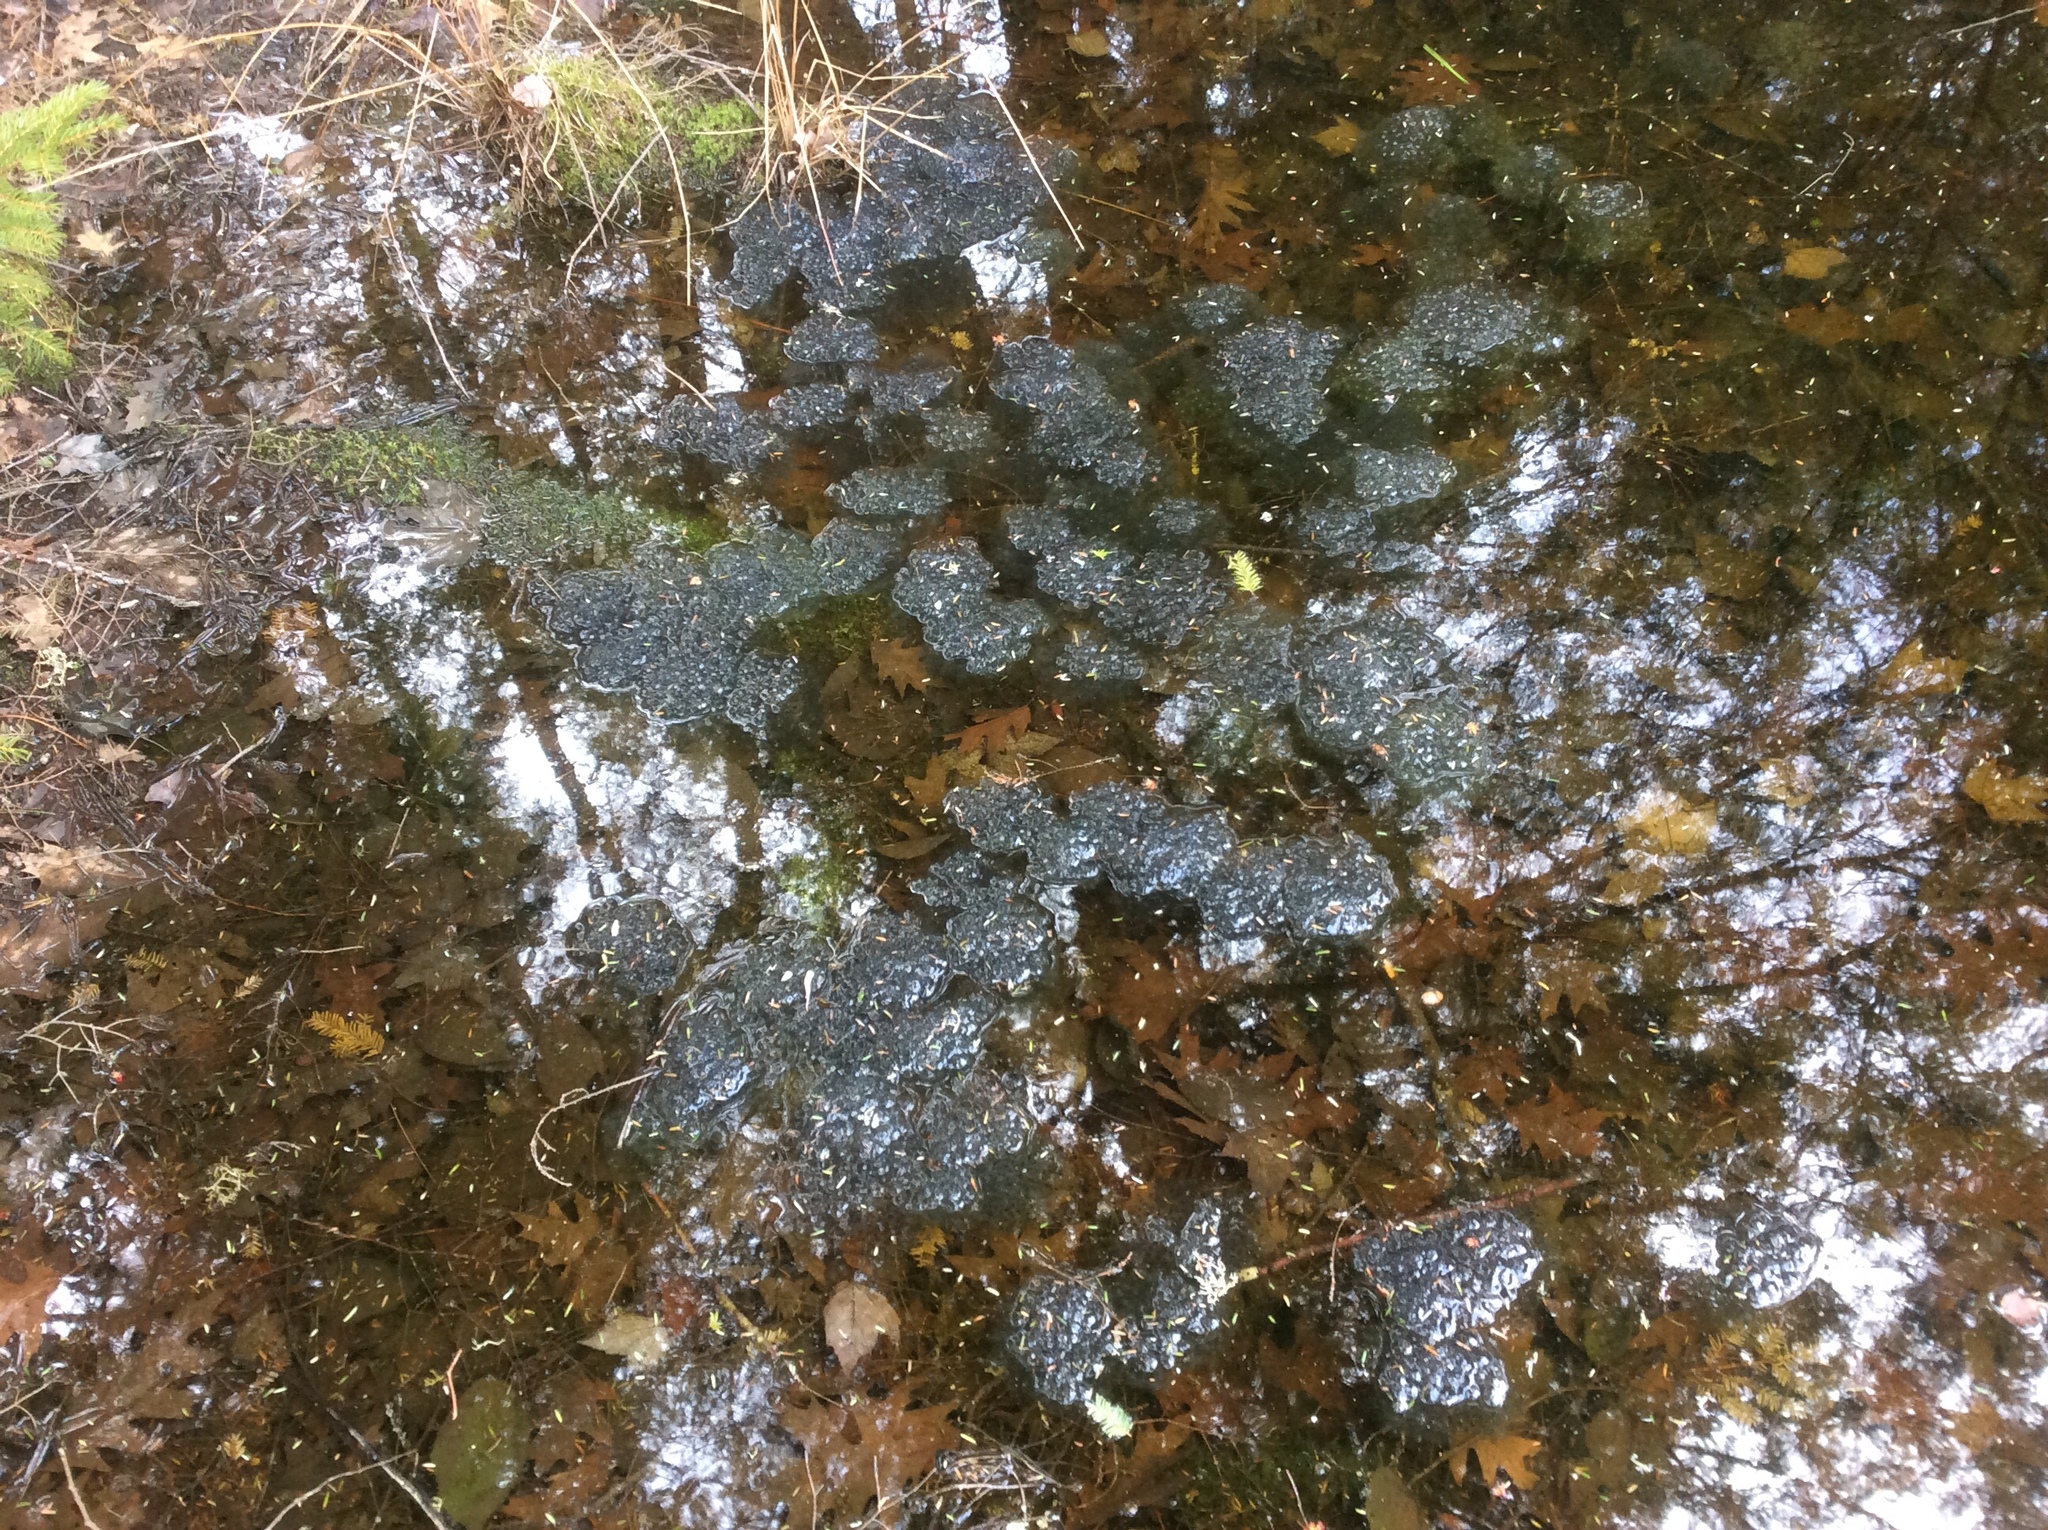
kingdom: Animalia
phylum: Chordata
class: Amphibia
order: Anura
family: Ranidae
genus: Lithobates
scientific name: Lithobates sylvaticus
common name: Wood frog
